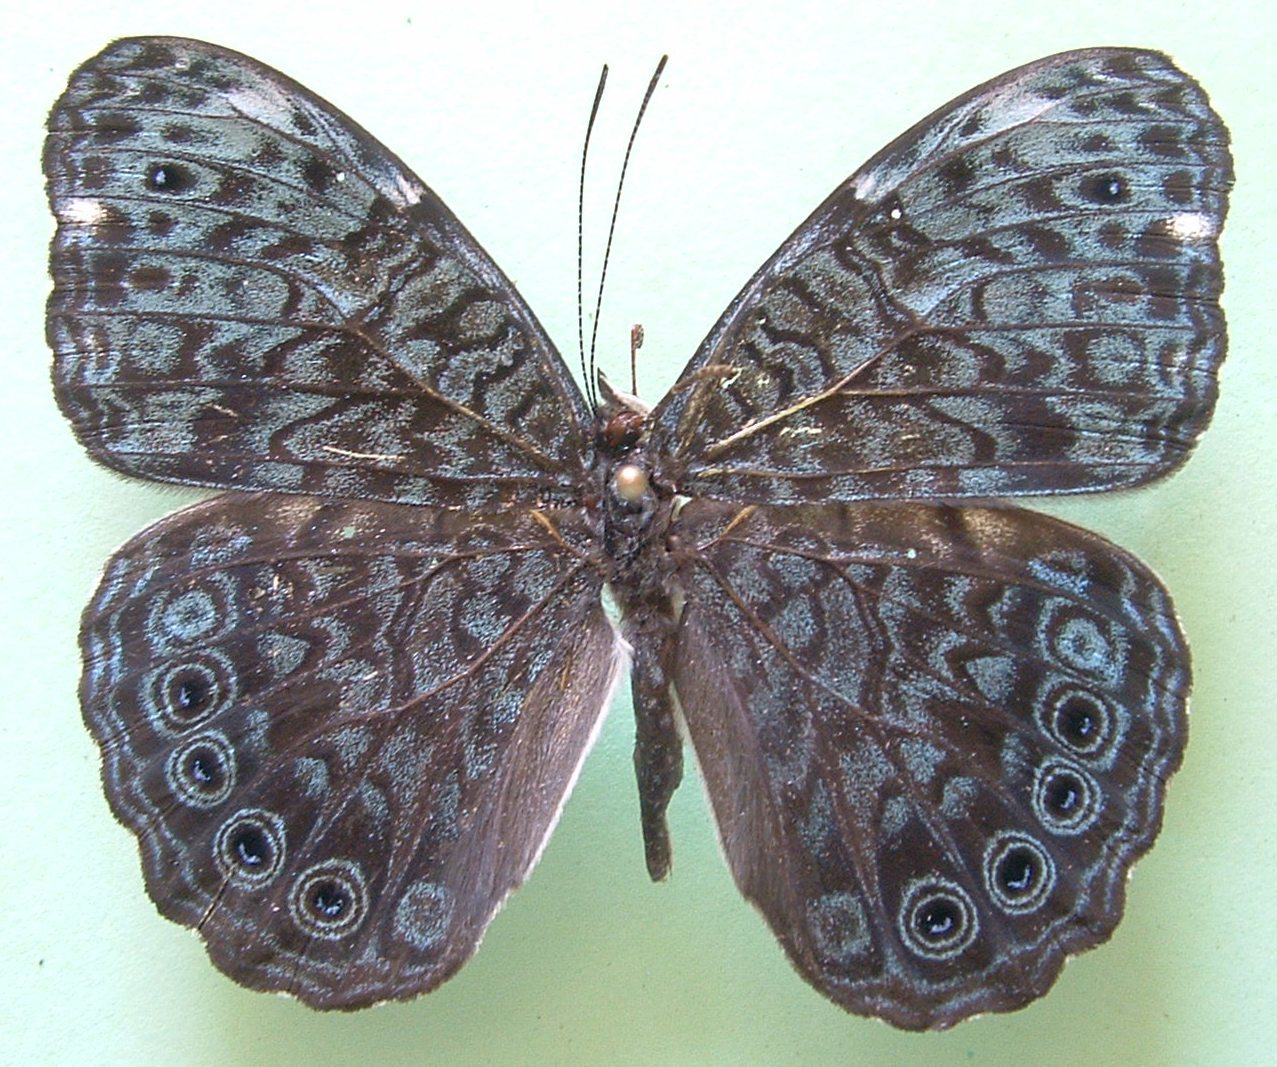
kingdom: Animalia
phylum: Arthropoda
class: Insecta
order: Lepidoptera
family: Nymphalidae
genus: Hamadryas
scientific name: Hamadryas atlantis
